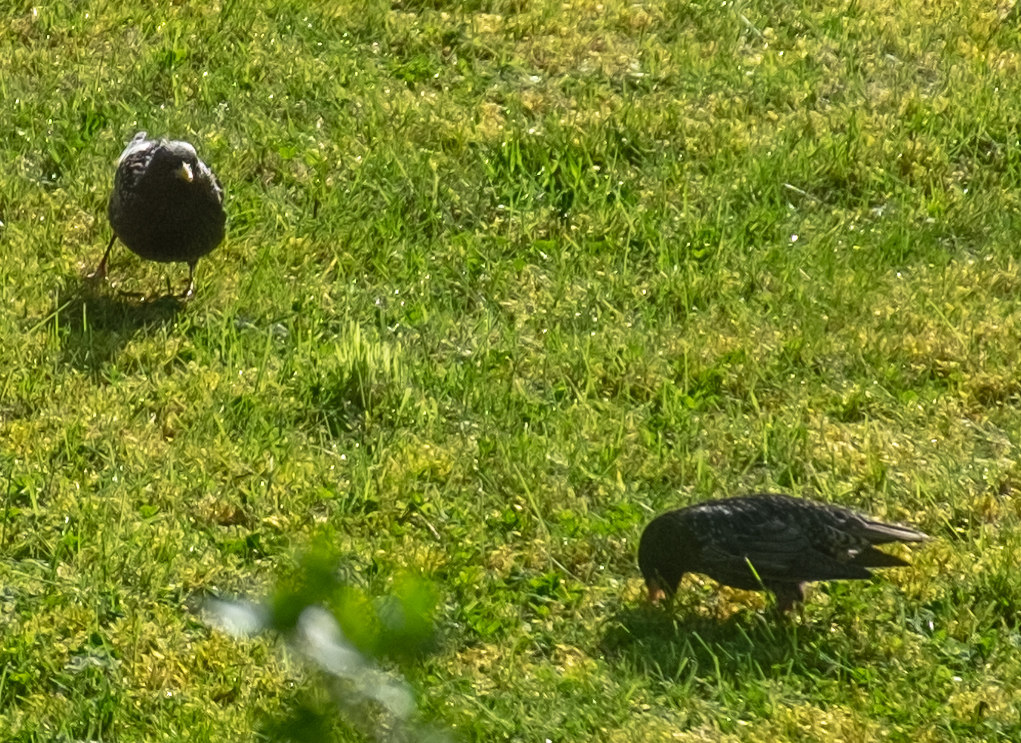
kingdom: Animalia
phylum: Chordata
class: Aves
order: Passeriformes
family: Sturnidae
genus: Sturnus
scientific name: Sturnus vulgaris
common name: Common starling
